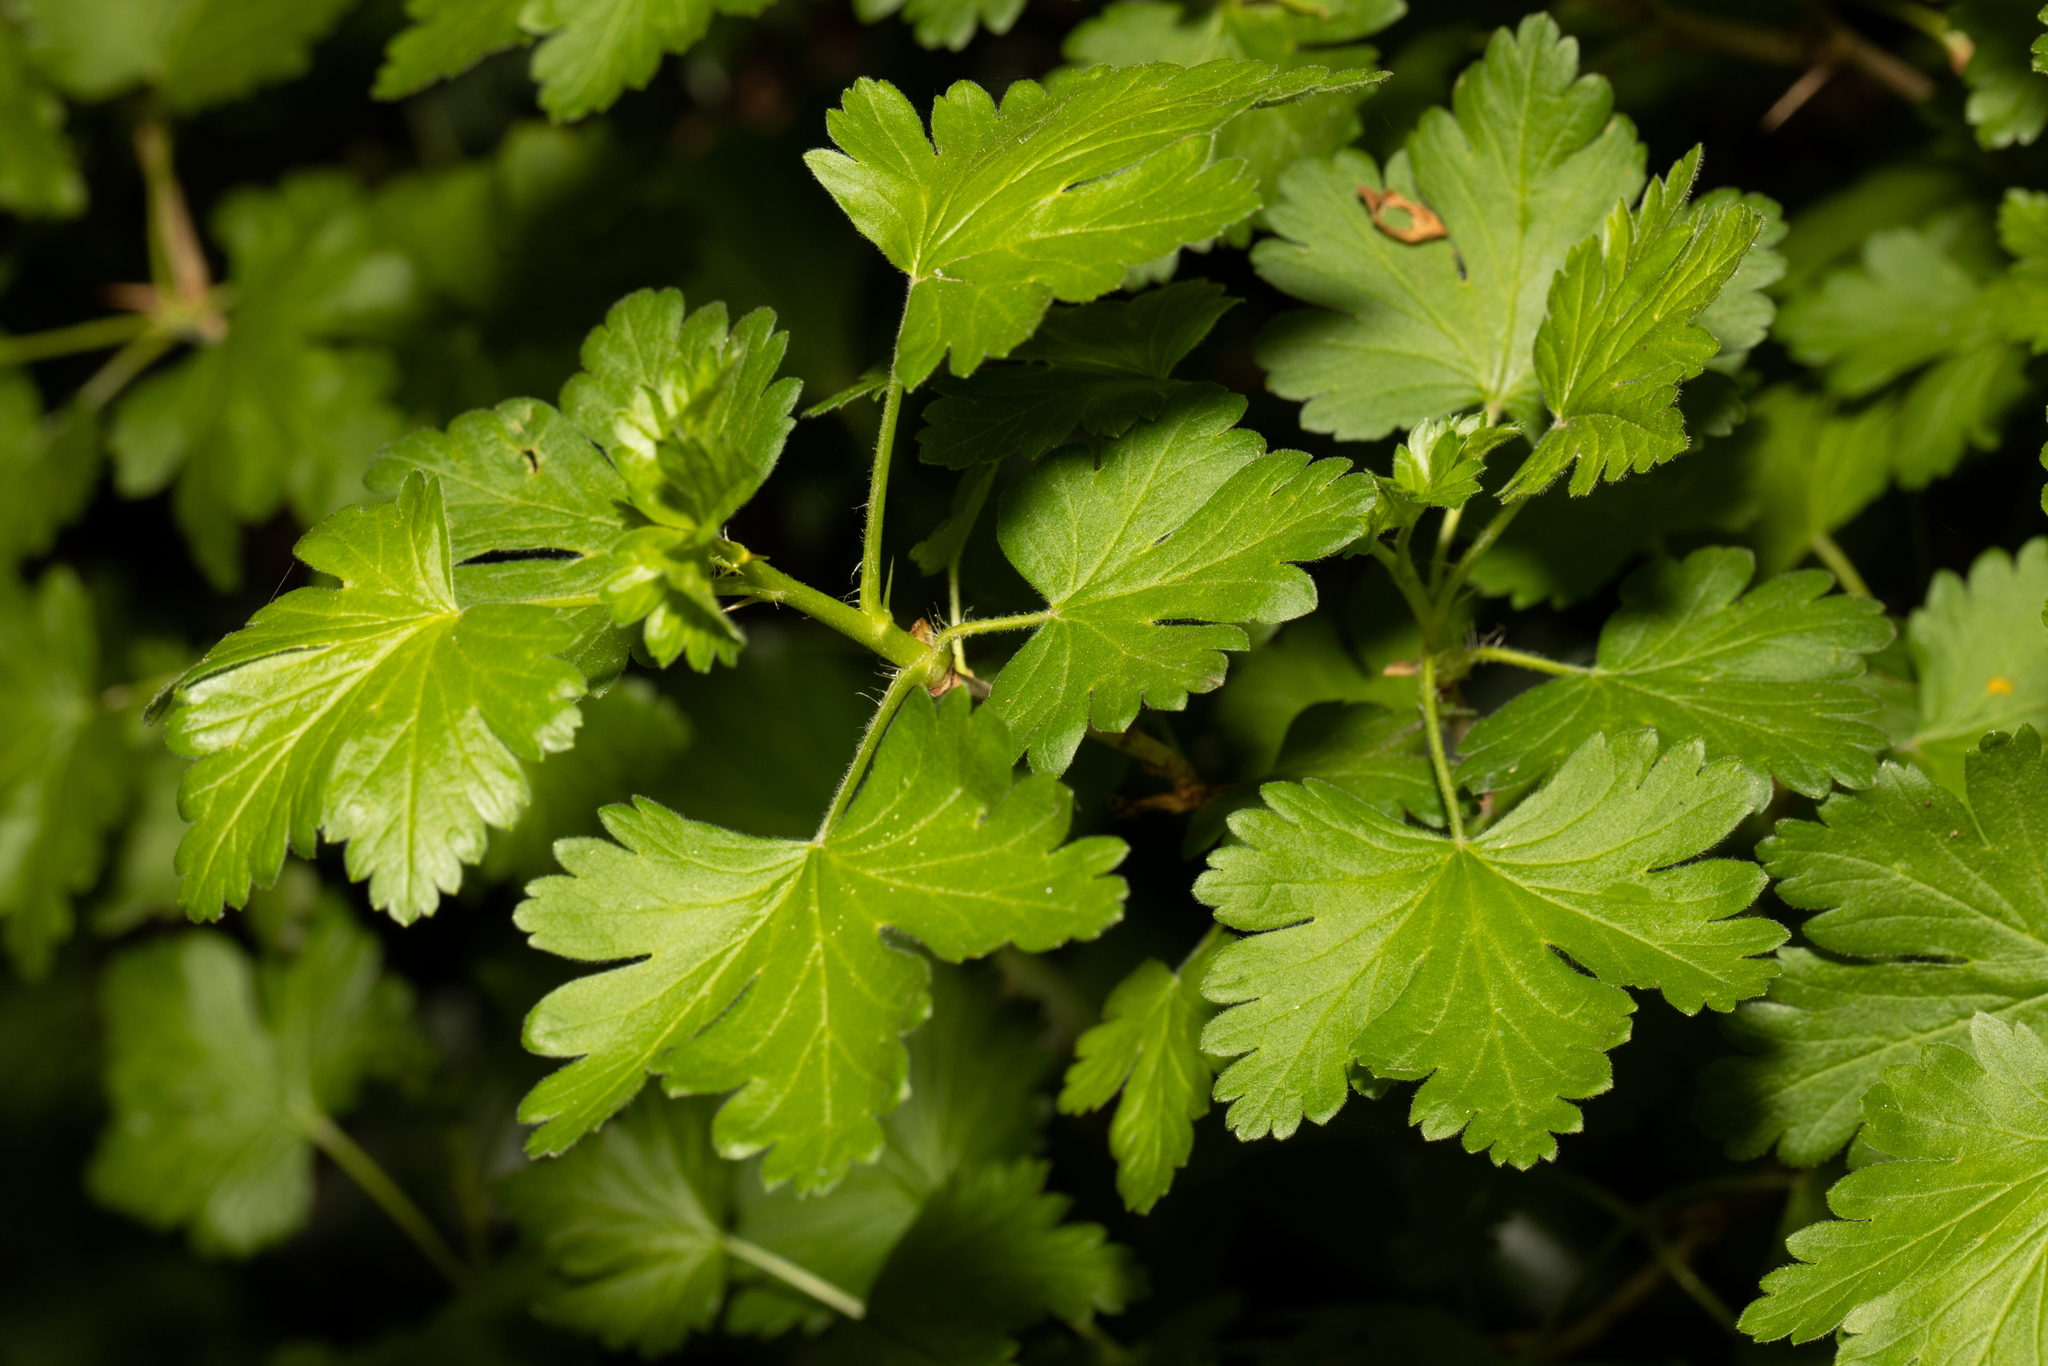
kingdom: Plantae
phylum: Tracheophyta
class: Magnoliopsida
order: Saxifragales
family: Grossulariaceae
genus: Ribes
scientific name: Ribes uva-crispa
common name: Gooseberry
